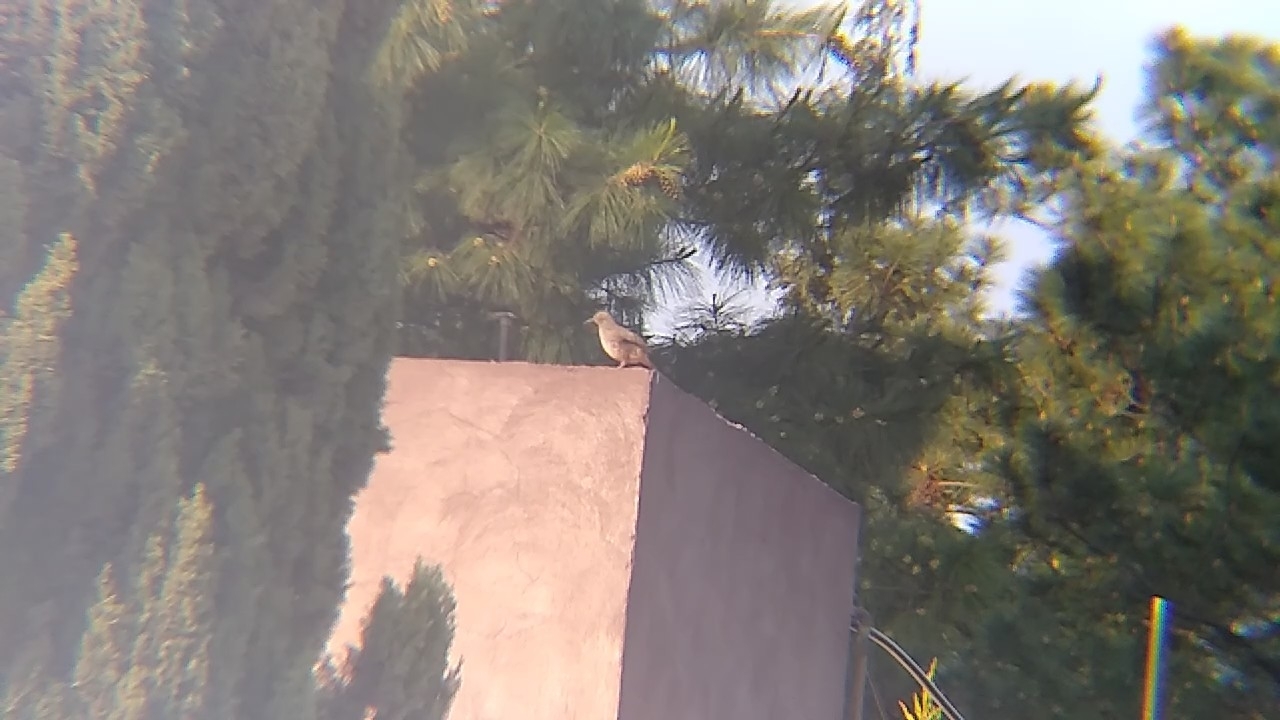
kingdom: Animalia
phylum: Chordata
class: Aves
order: Passeriformes
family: Mimidae
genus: Toxostoma
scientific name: Toxostoma curvirostre
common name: Curve-billed thrasher
